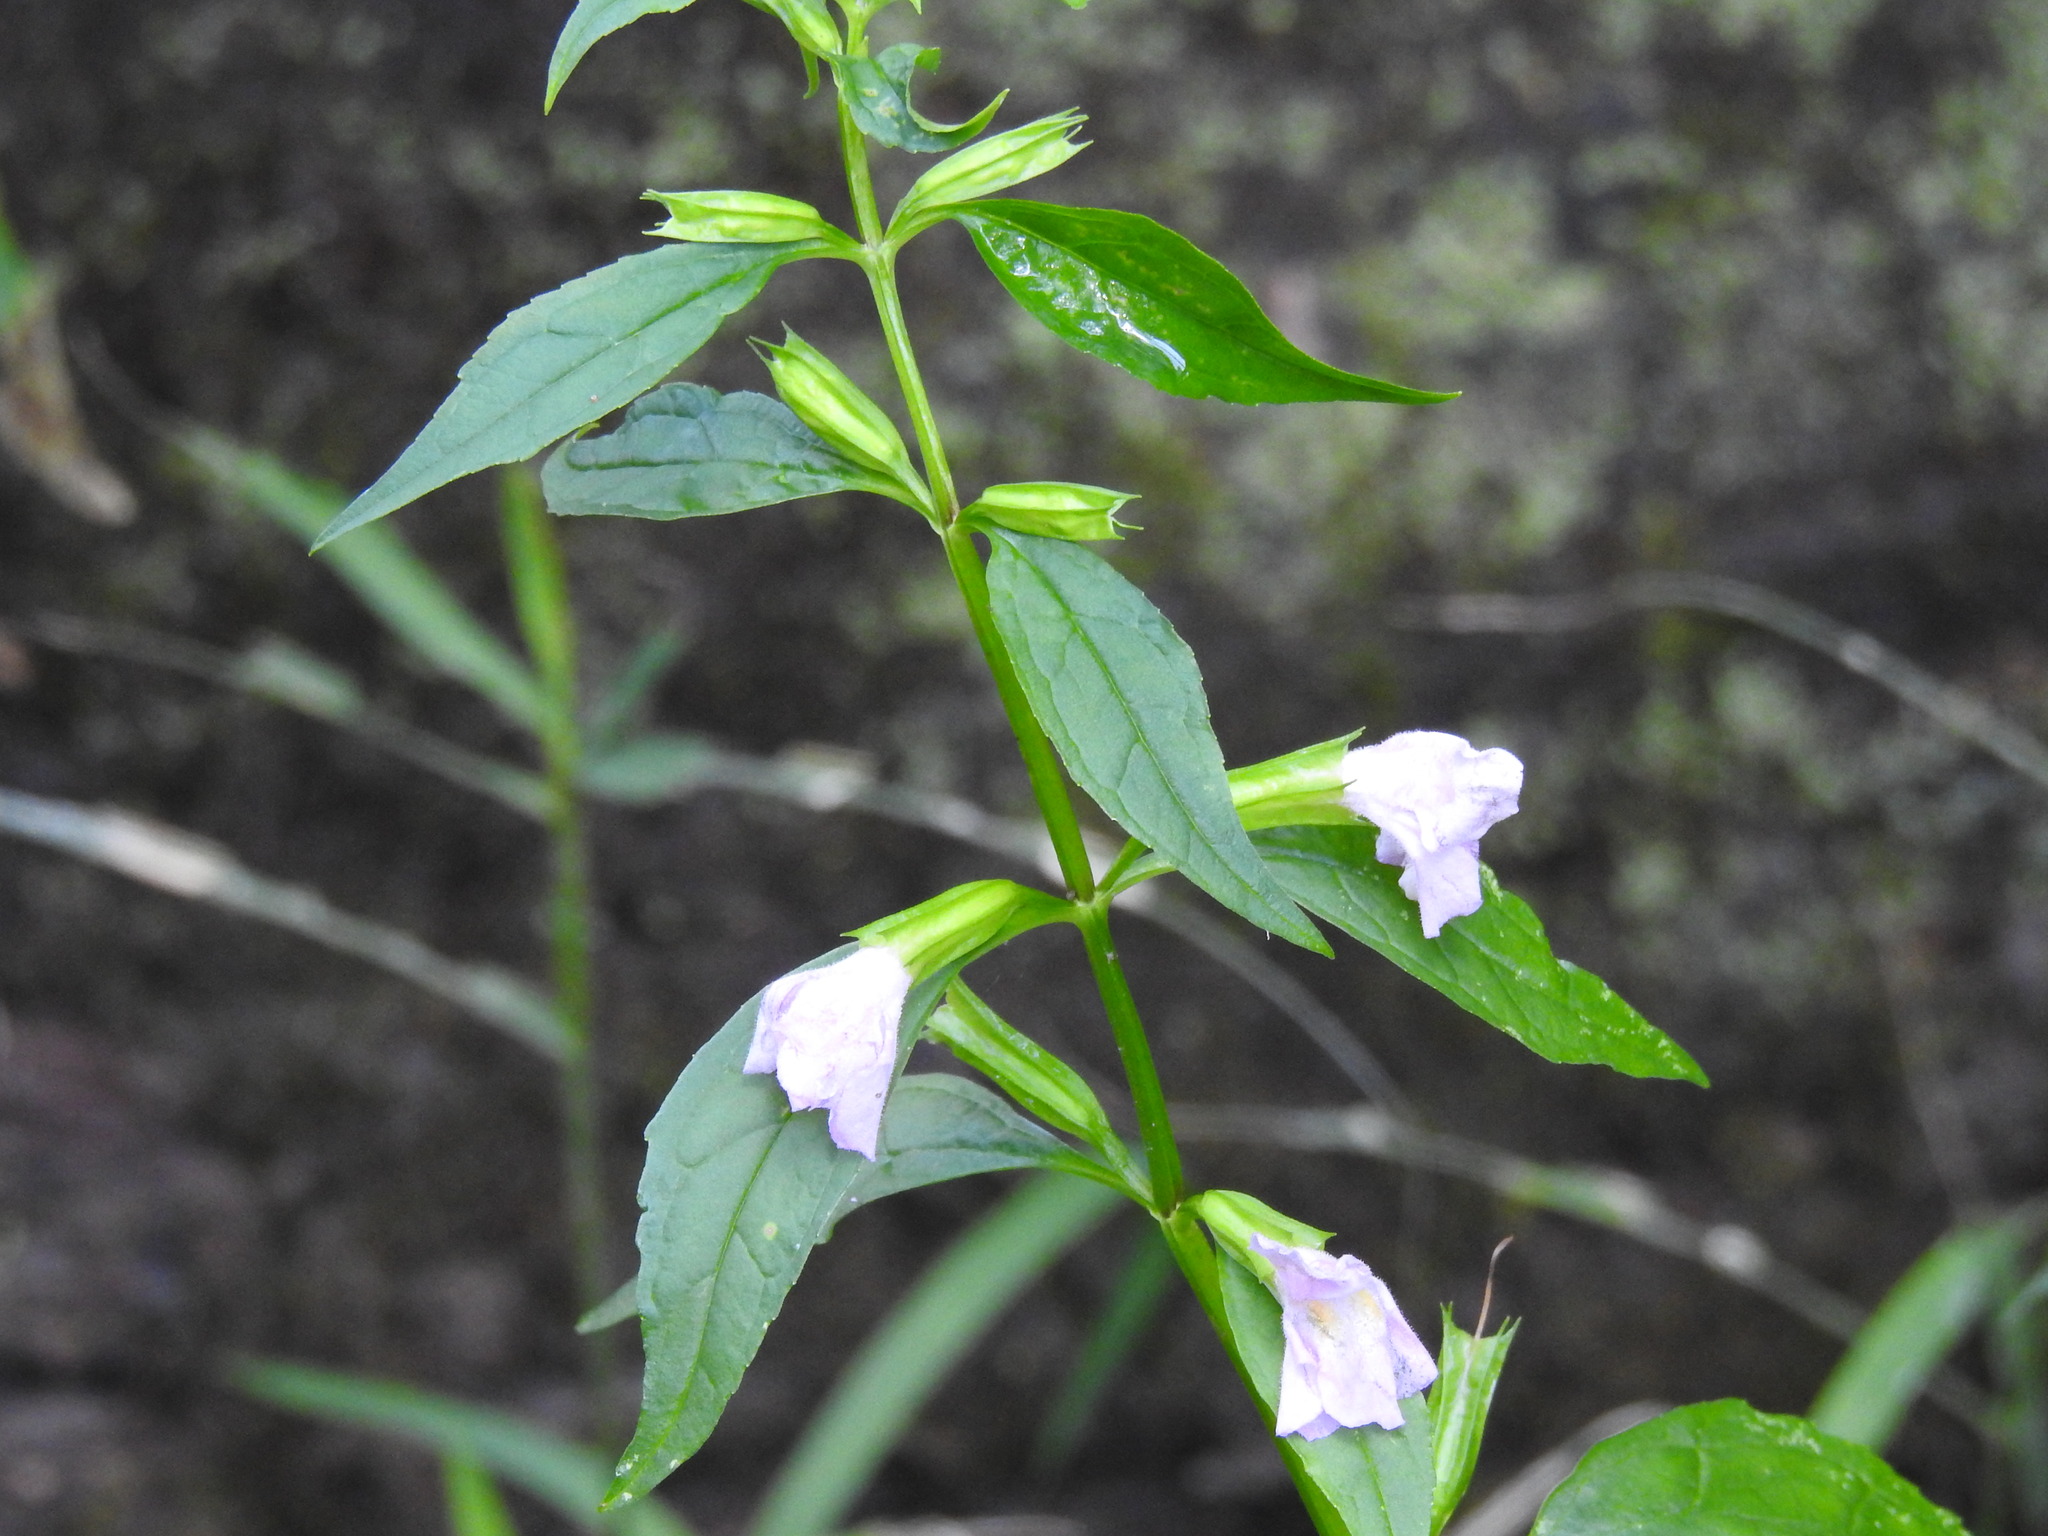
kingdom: Plantae
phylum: Tracheophyta
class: Magnoliopsida
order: Lamiales
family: Phrymaceae
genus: Mimulus
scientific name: Mimulus alatus
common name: Sharp-wing monkey-flower
